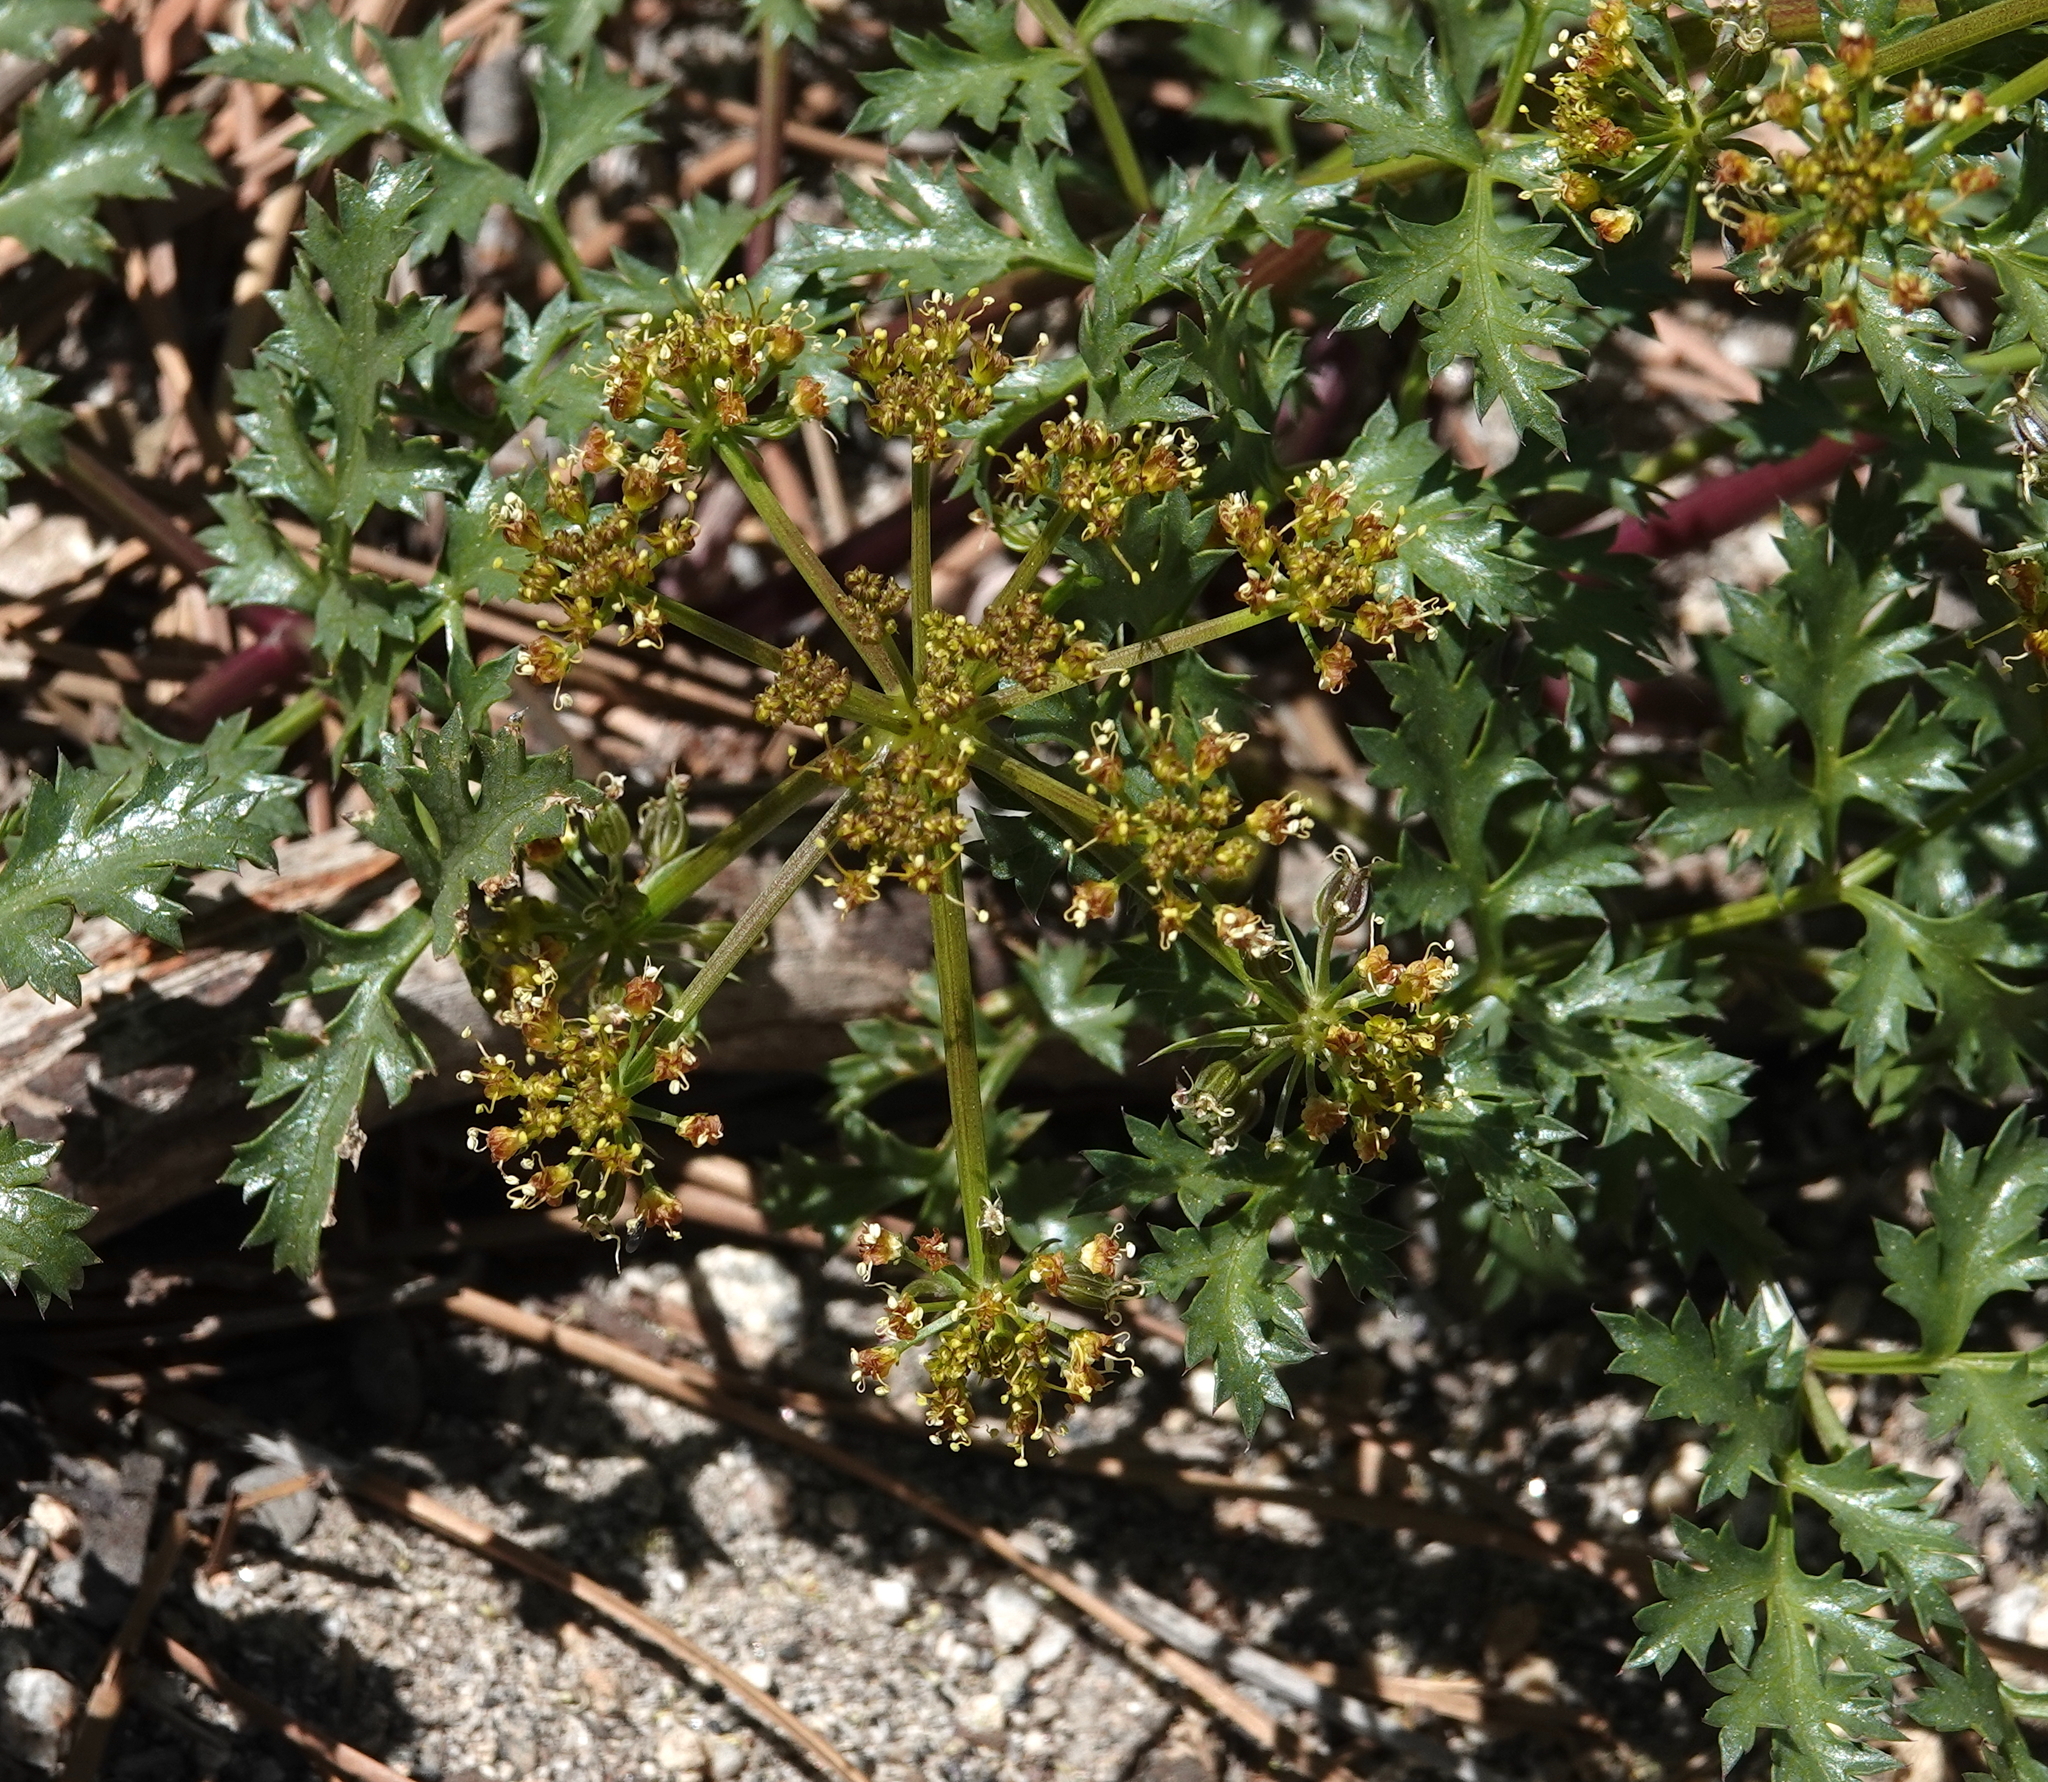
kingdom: Plantae
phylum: Tracheophyta
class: Magnoliopsida
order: Apiales
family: Apiaceae
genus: Tauschia
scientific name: Tauschia parishii
